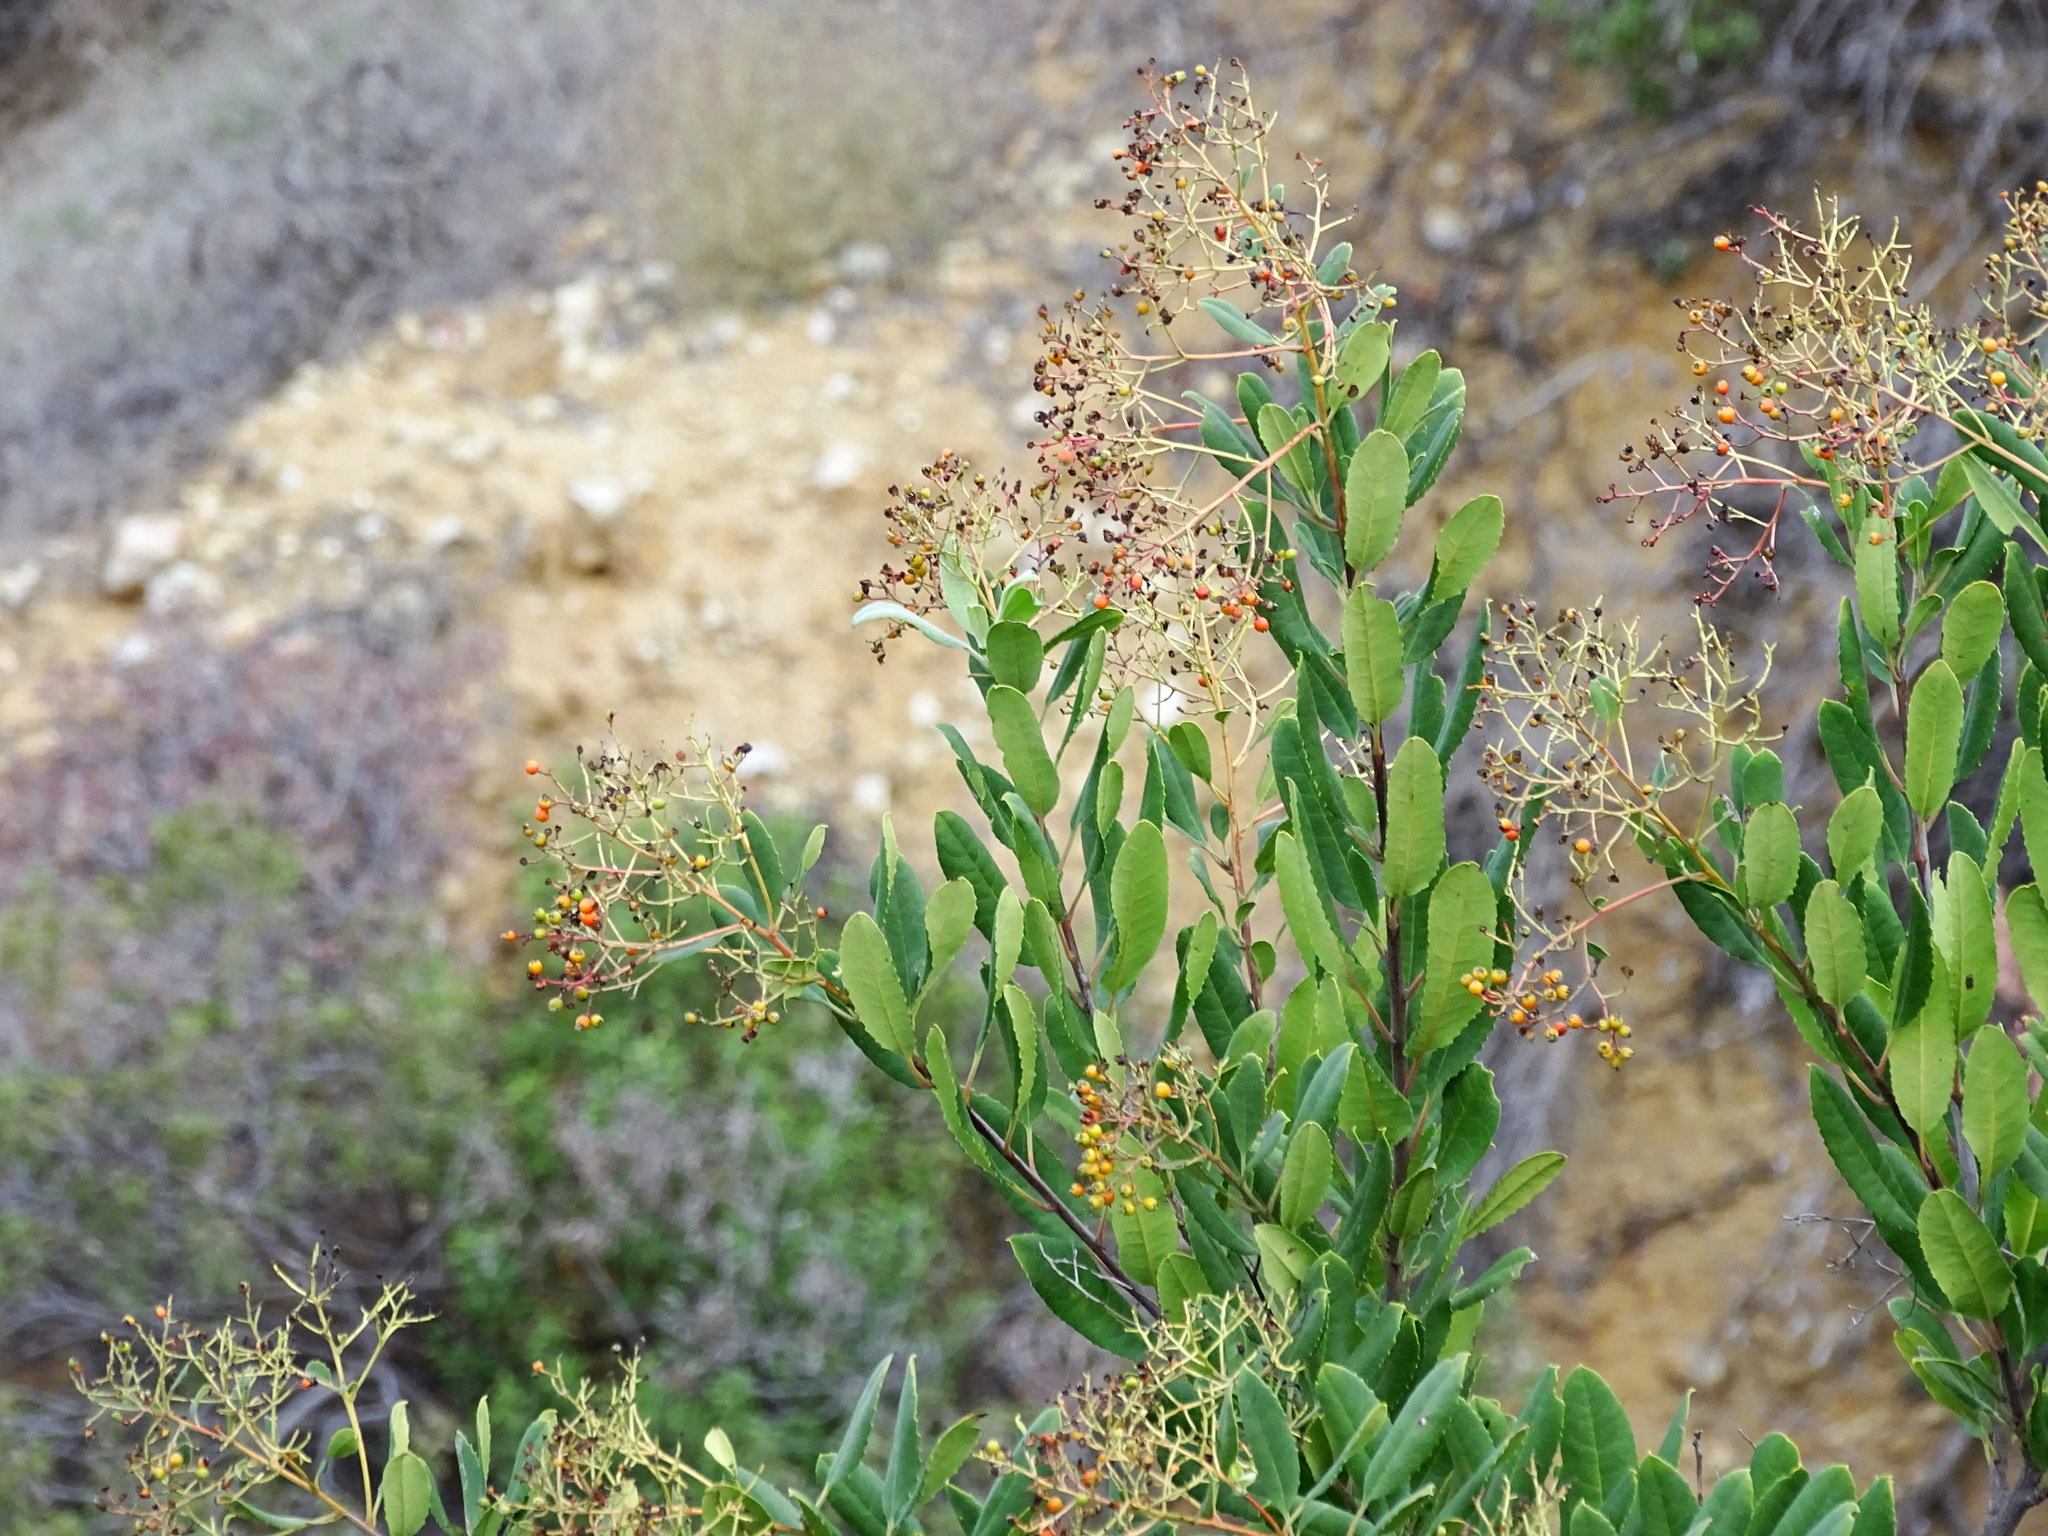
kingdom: Plantae
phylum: Tracheophyta
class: Magnoliopsida
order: Rosales
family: Rosaceae
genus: Heteromeles
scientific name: Heteromeles arbutifolia
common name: California-holly
